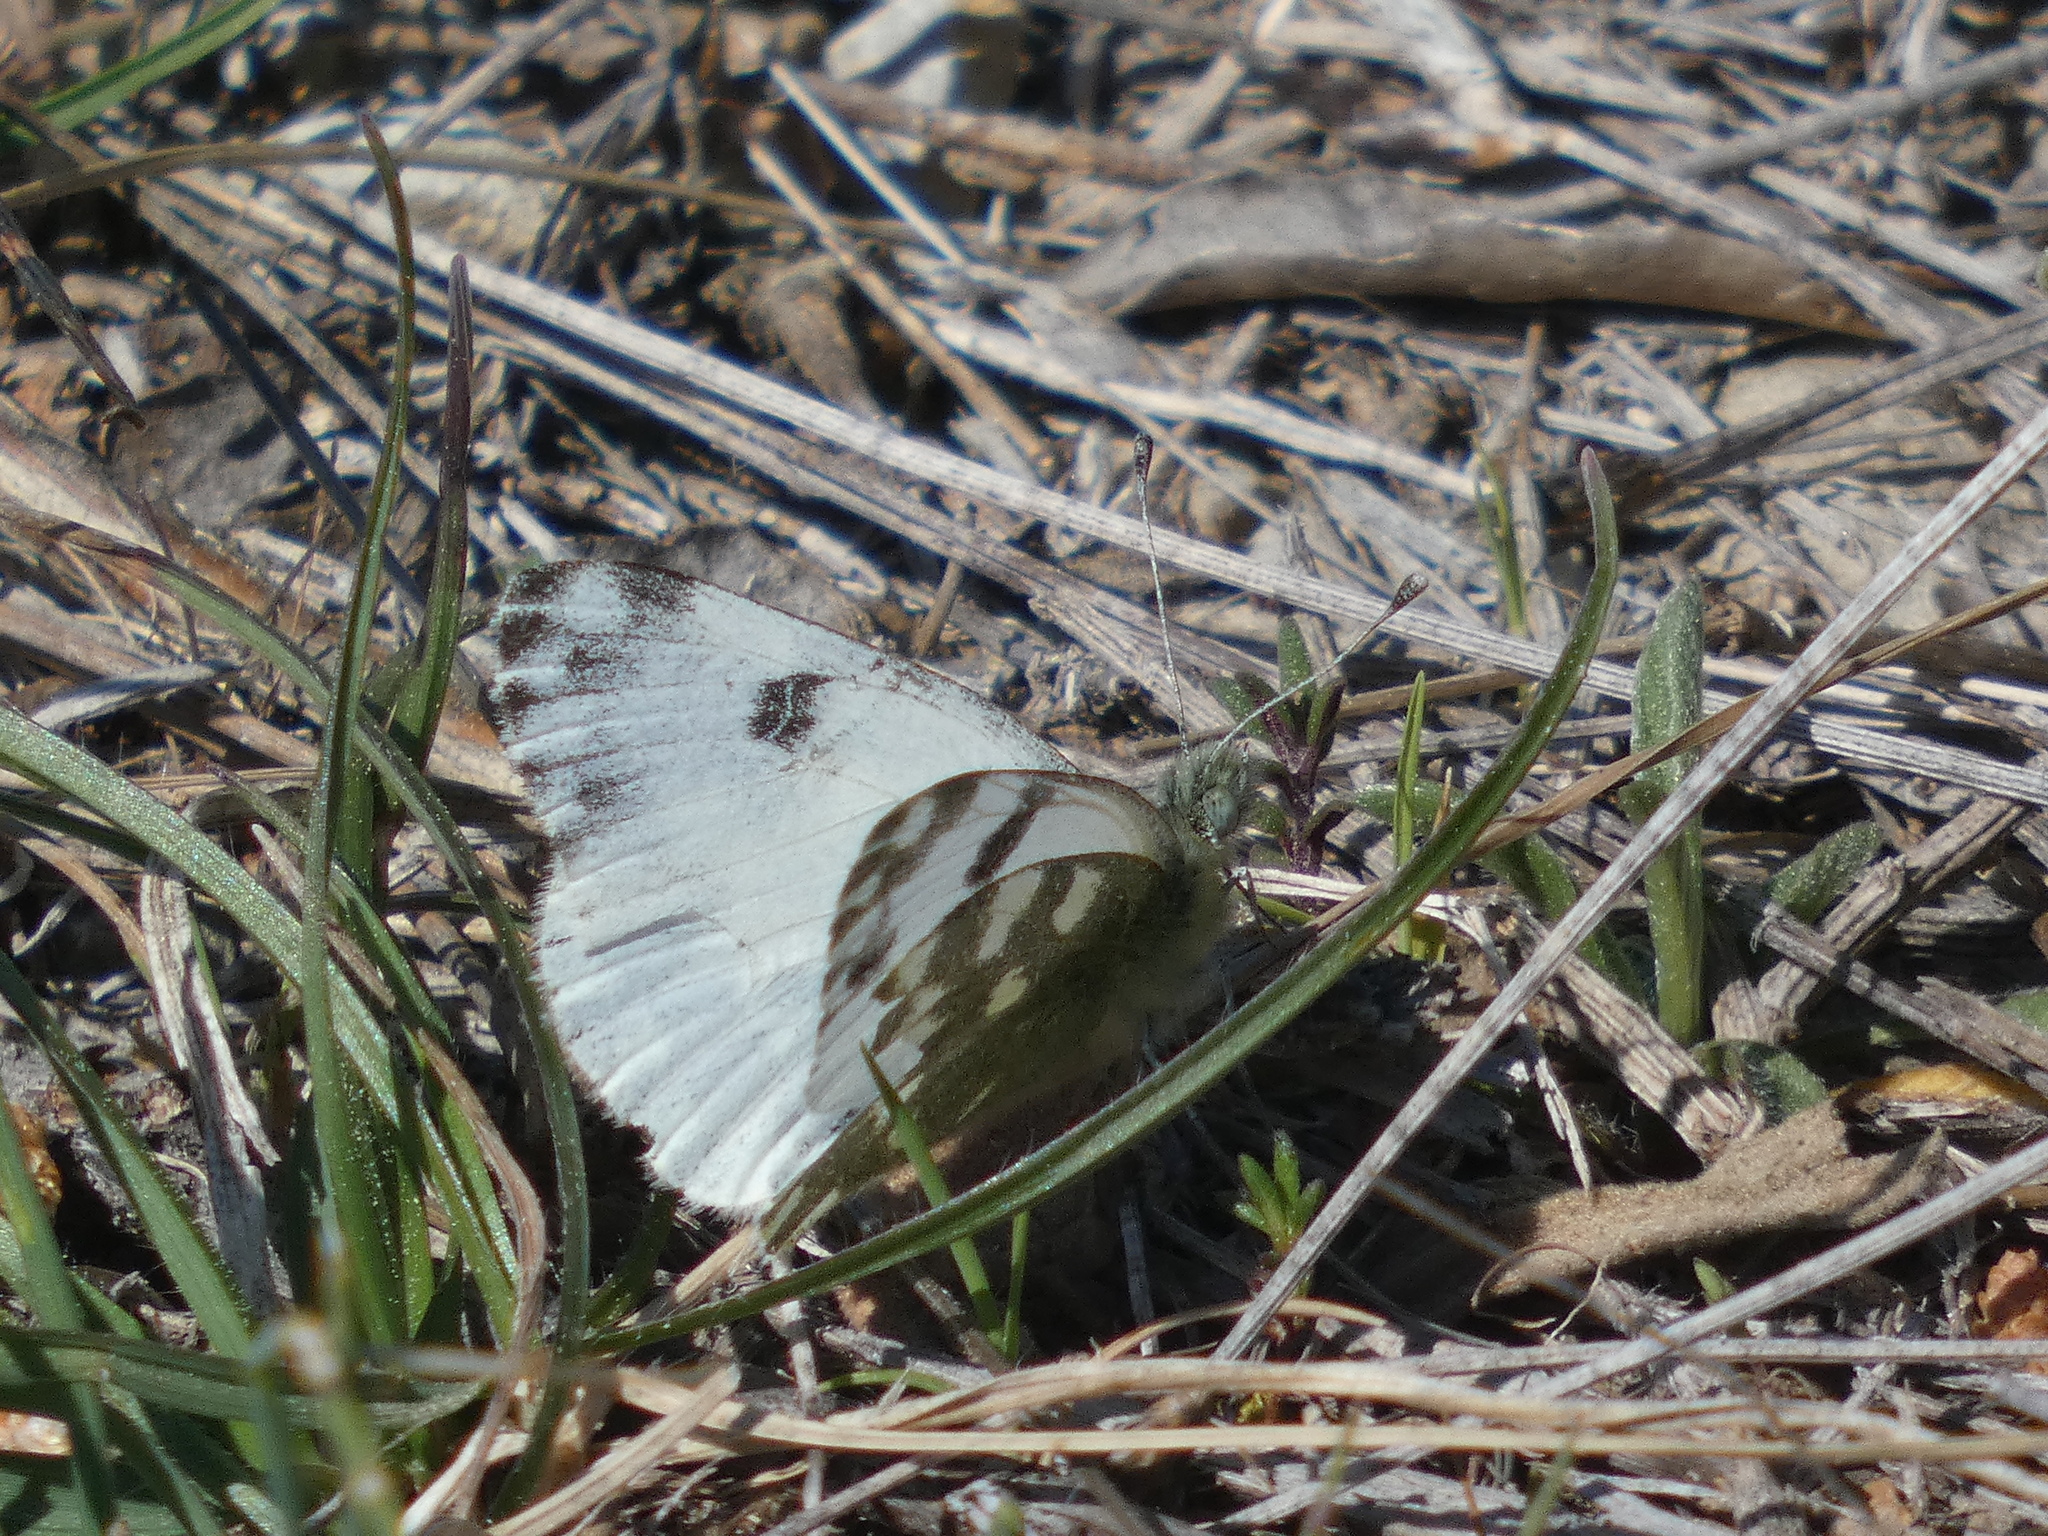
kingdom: Animalia
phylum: Arthropoda
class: Insecta
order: Lepidoptera
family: Pieridae
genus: Pontia
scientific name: Pontia daplidice
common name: Bath white
